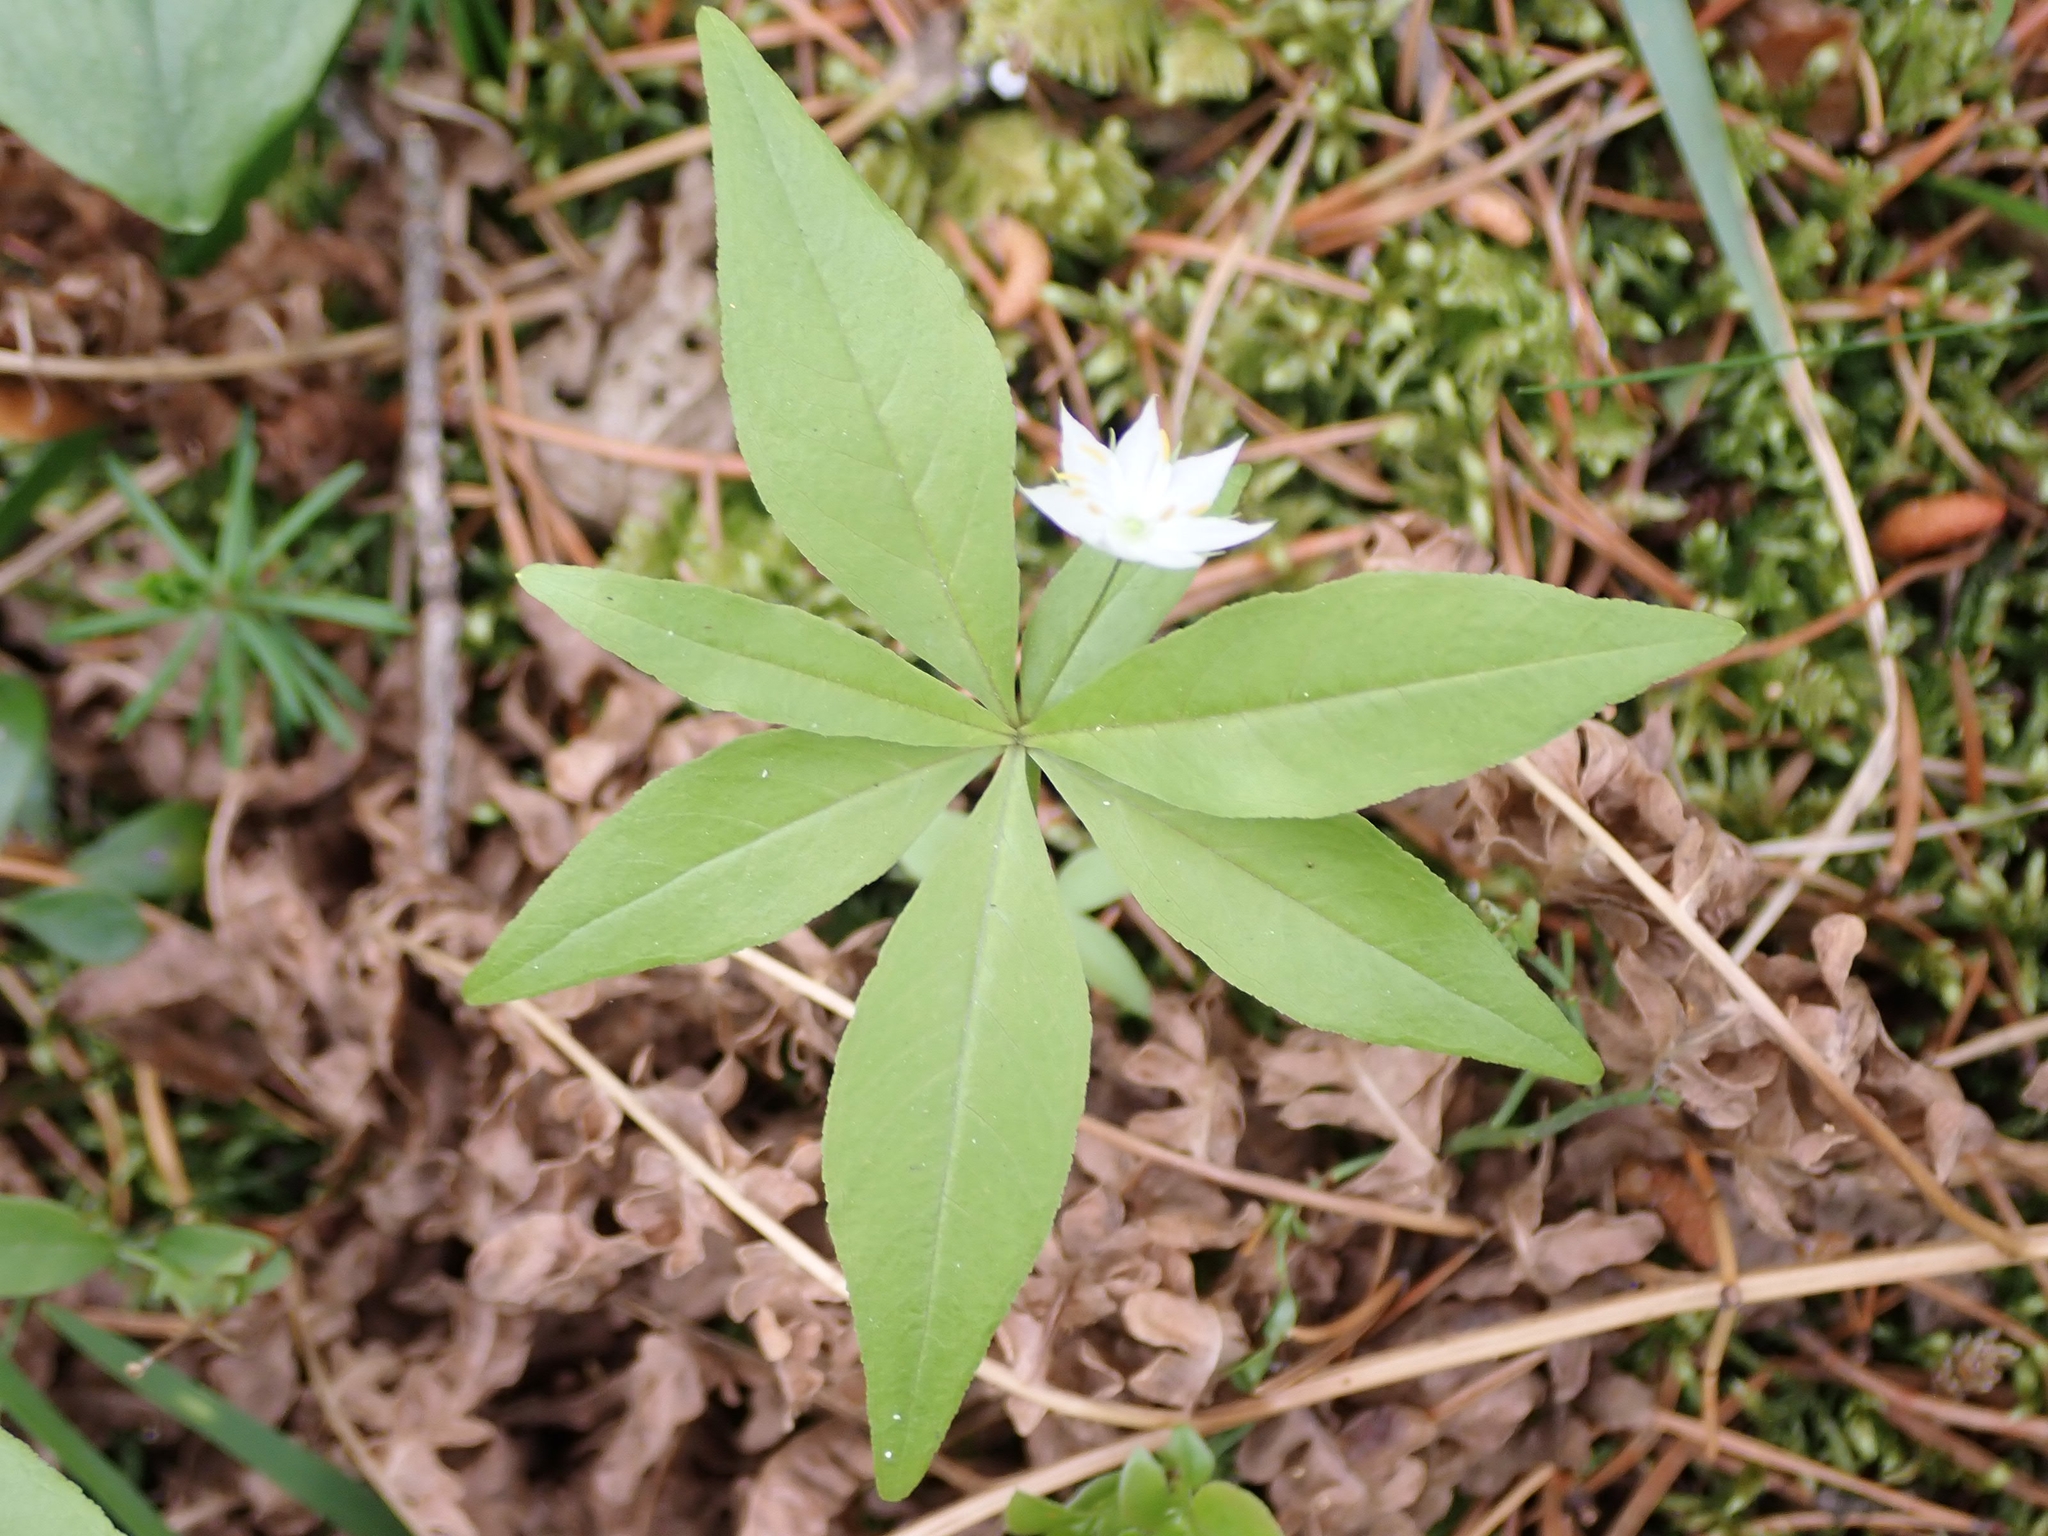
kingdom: Plantae
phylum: Tracheophyta
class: Magnoliopsida
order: Ericales
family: Primulaceae
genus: Lysimachia
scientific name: Lysimachia borealis
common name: American starflower
